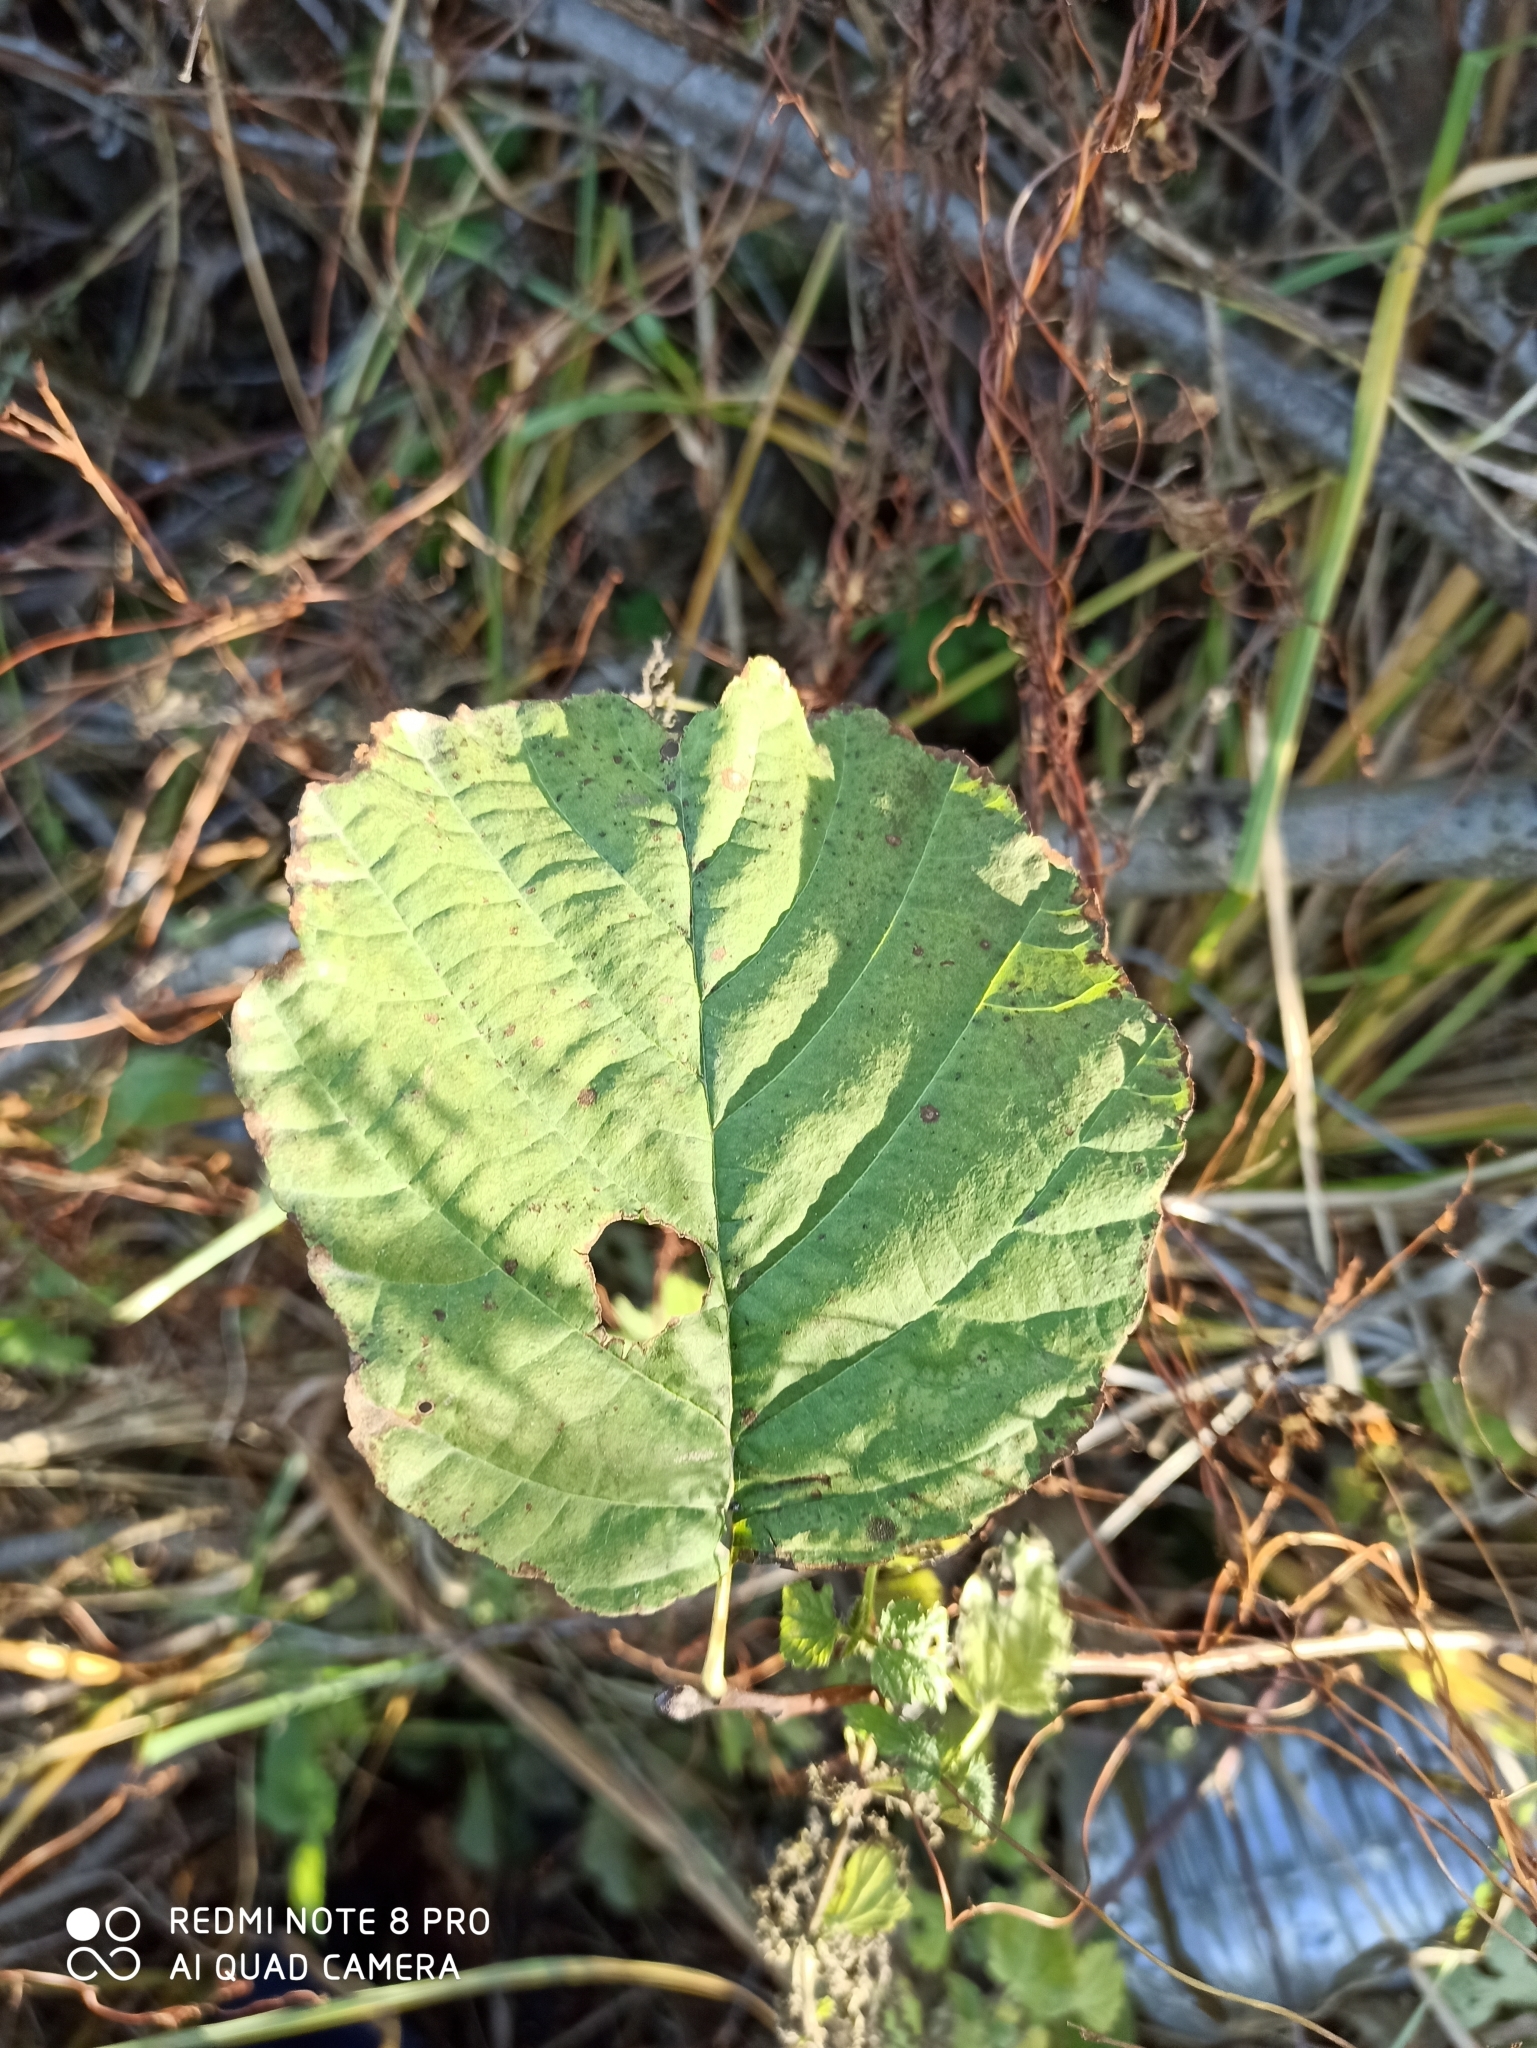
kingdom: Plantae
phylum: Tracheophyta
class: Magnoliopsida
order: Fagales
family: Betulaceae
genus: Alnus
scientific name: Alnus glutinosa
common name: Black alder
